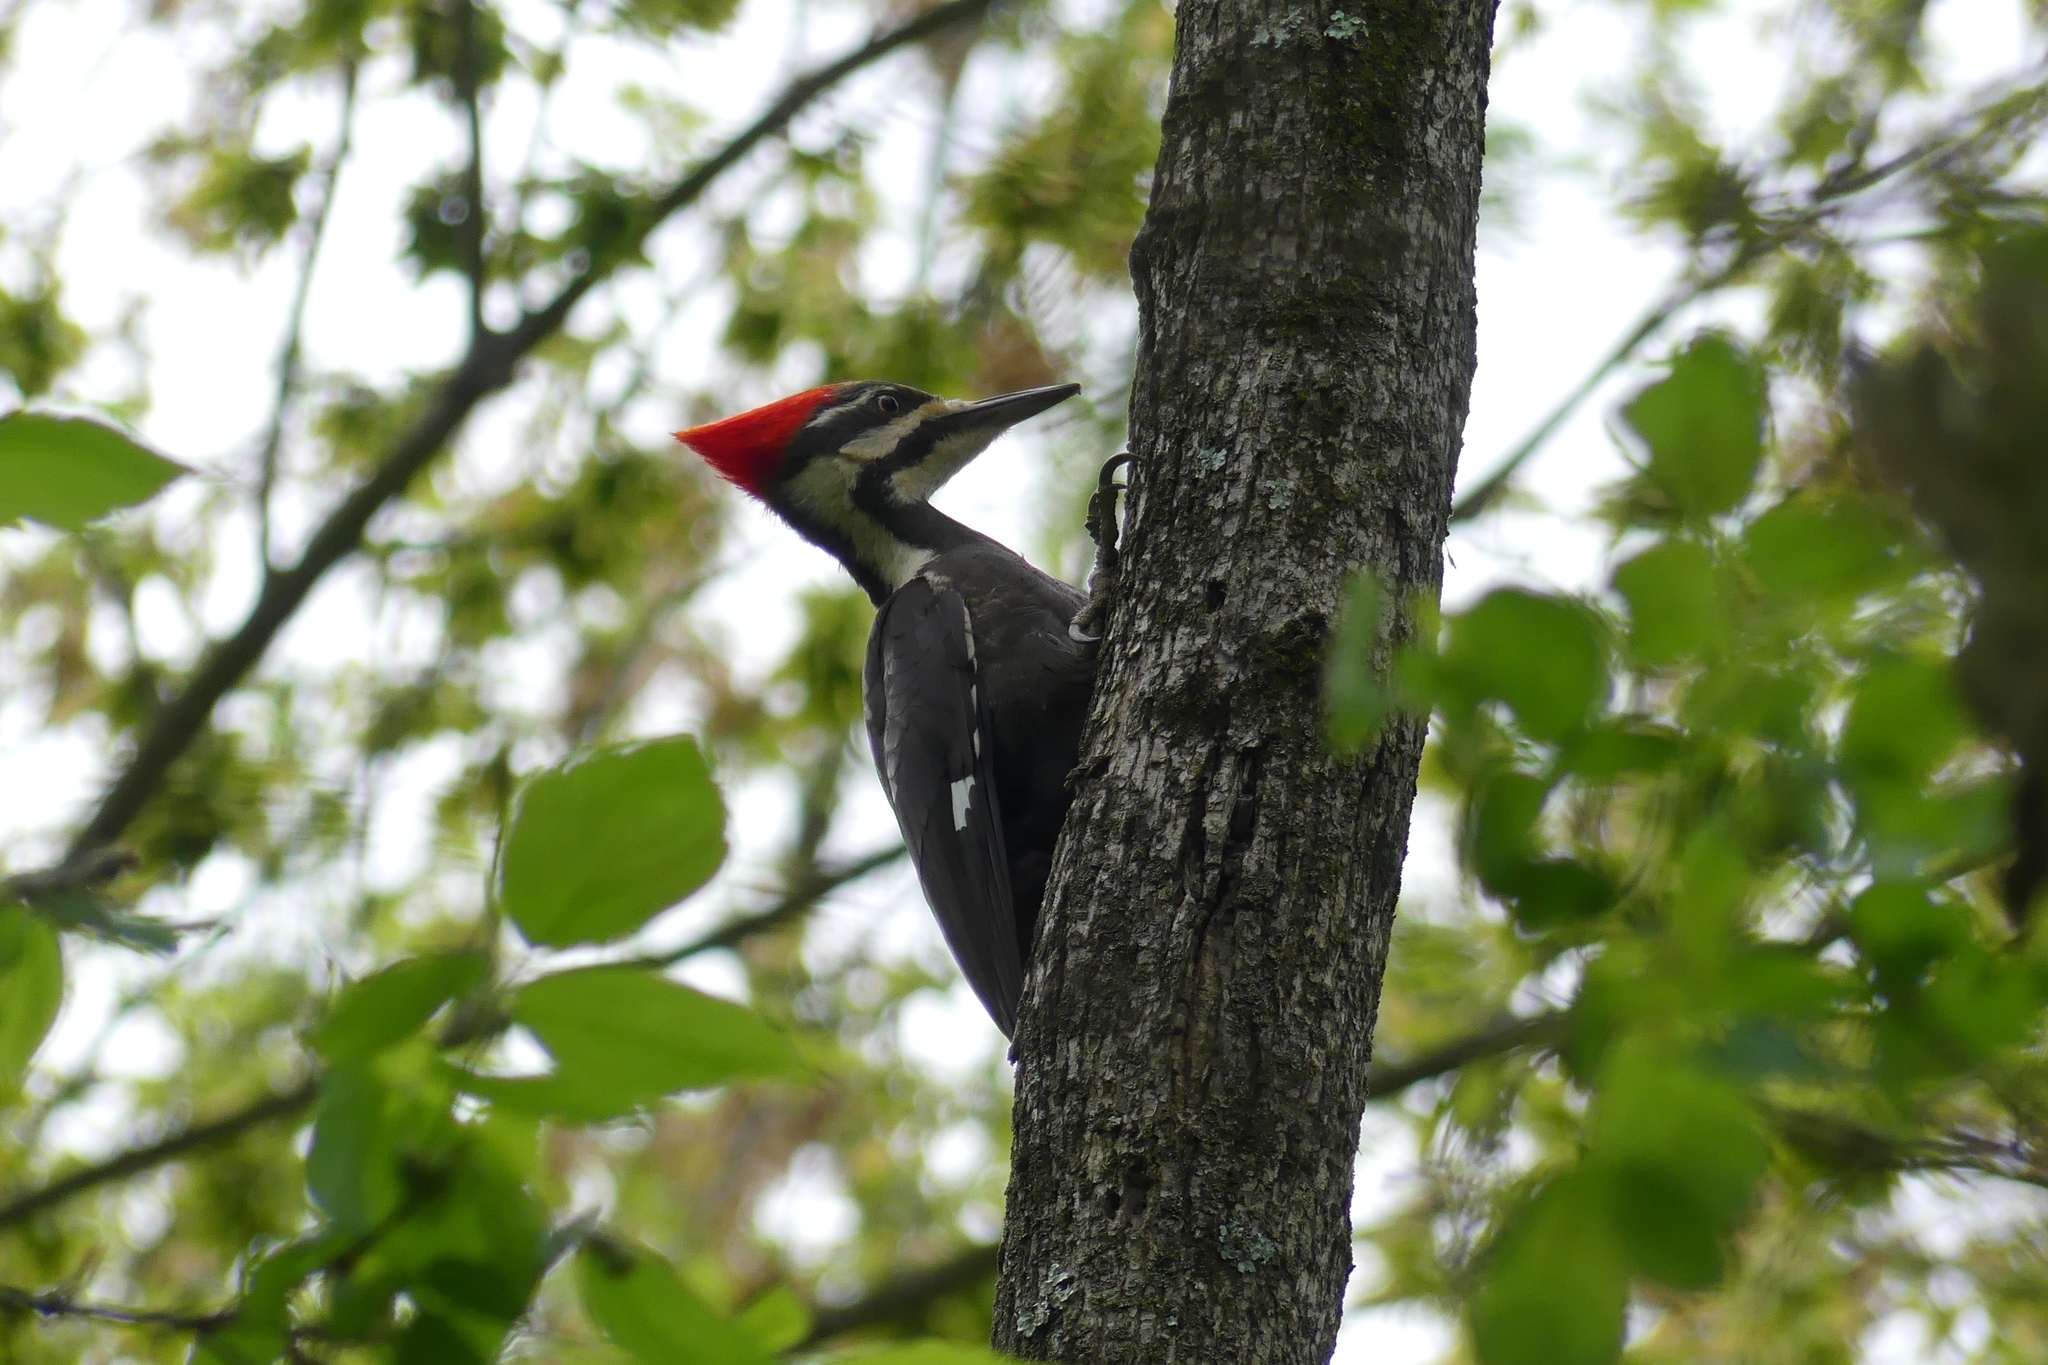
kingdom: Animalia
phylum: Chordata
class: Aves
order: Piciformes
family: Picidae
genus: Dryocopus
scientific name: Dryocopus pileatus
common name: Pileated woodpecker
